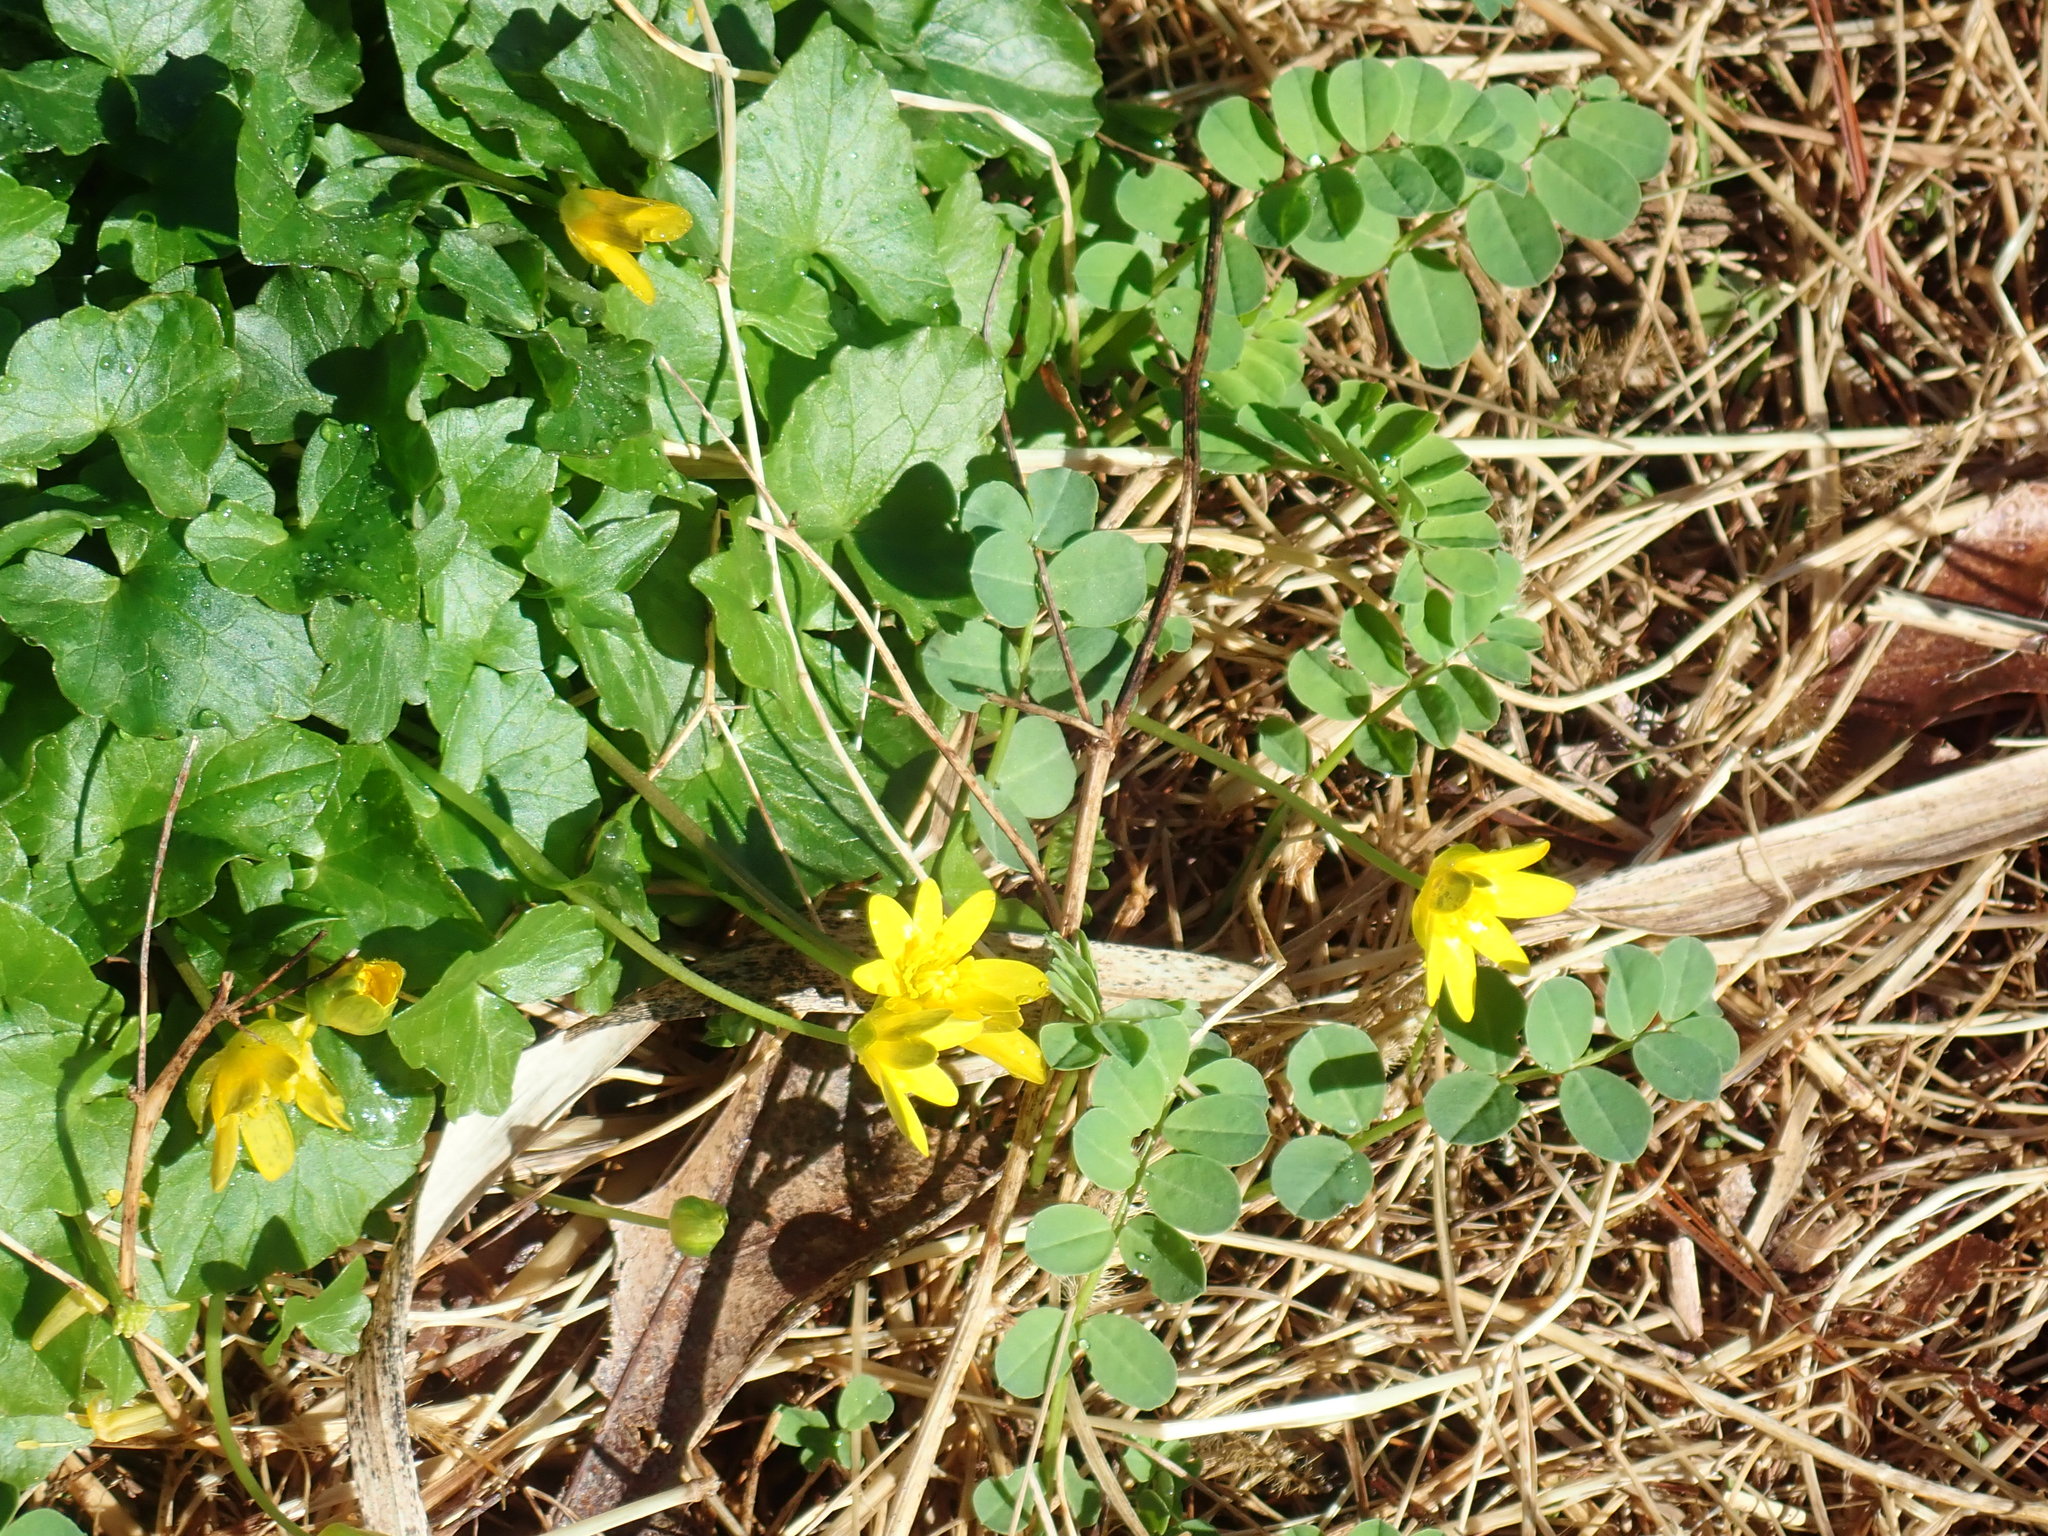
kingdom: Plantae
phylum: Tracheophyta
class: Magnoliopsida
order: Ranunculales
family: Ranunculaceae
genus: Ficaria
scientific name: Ficaria verna
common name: Lesser celandine
